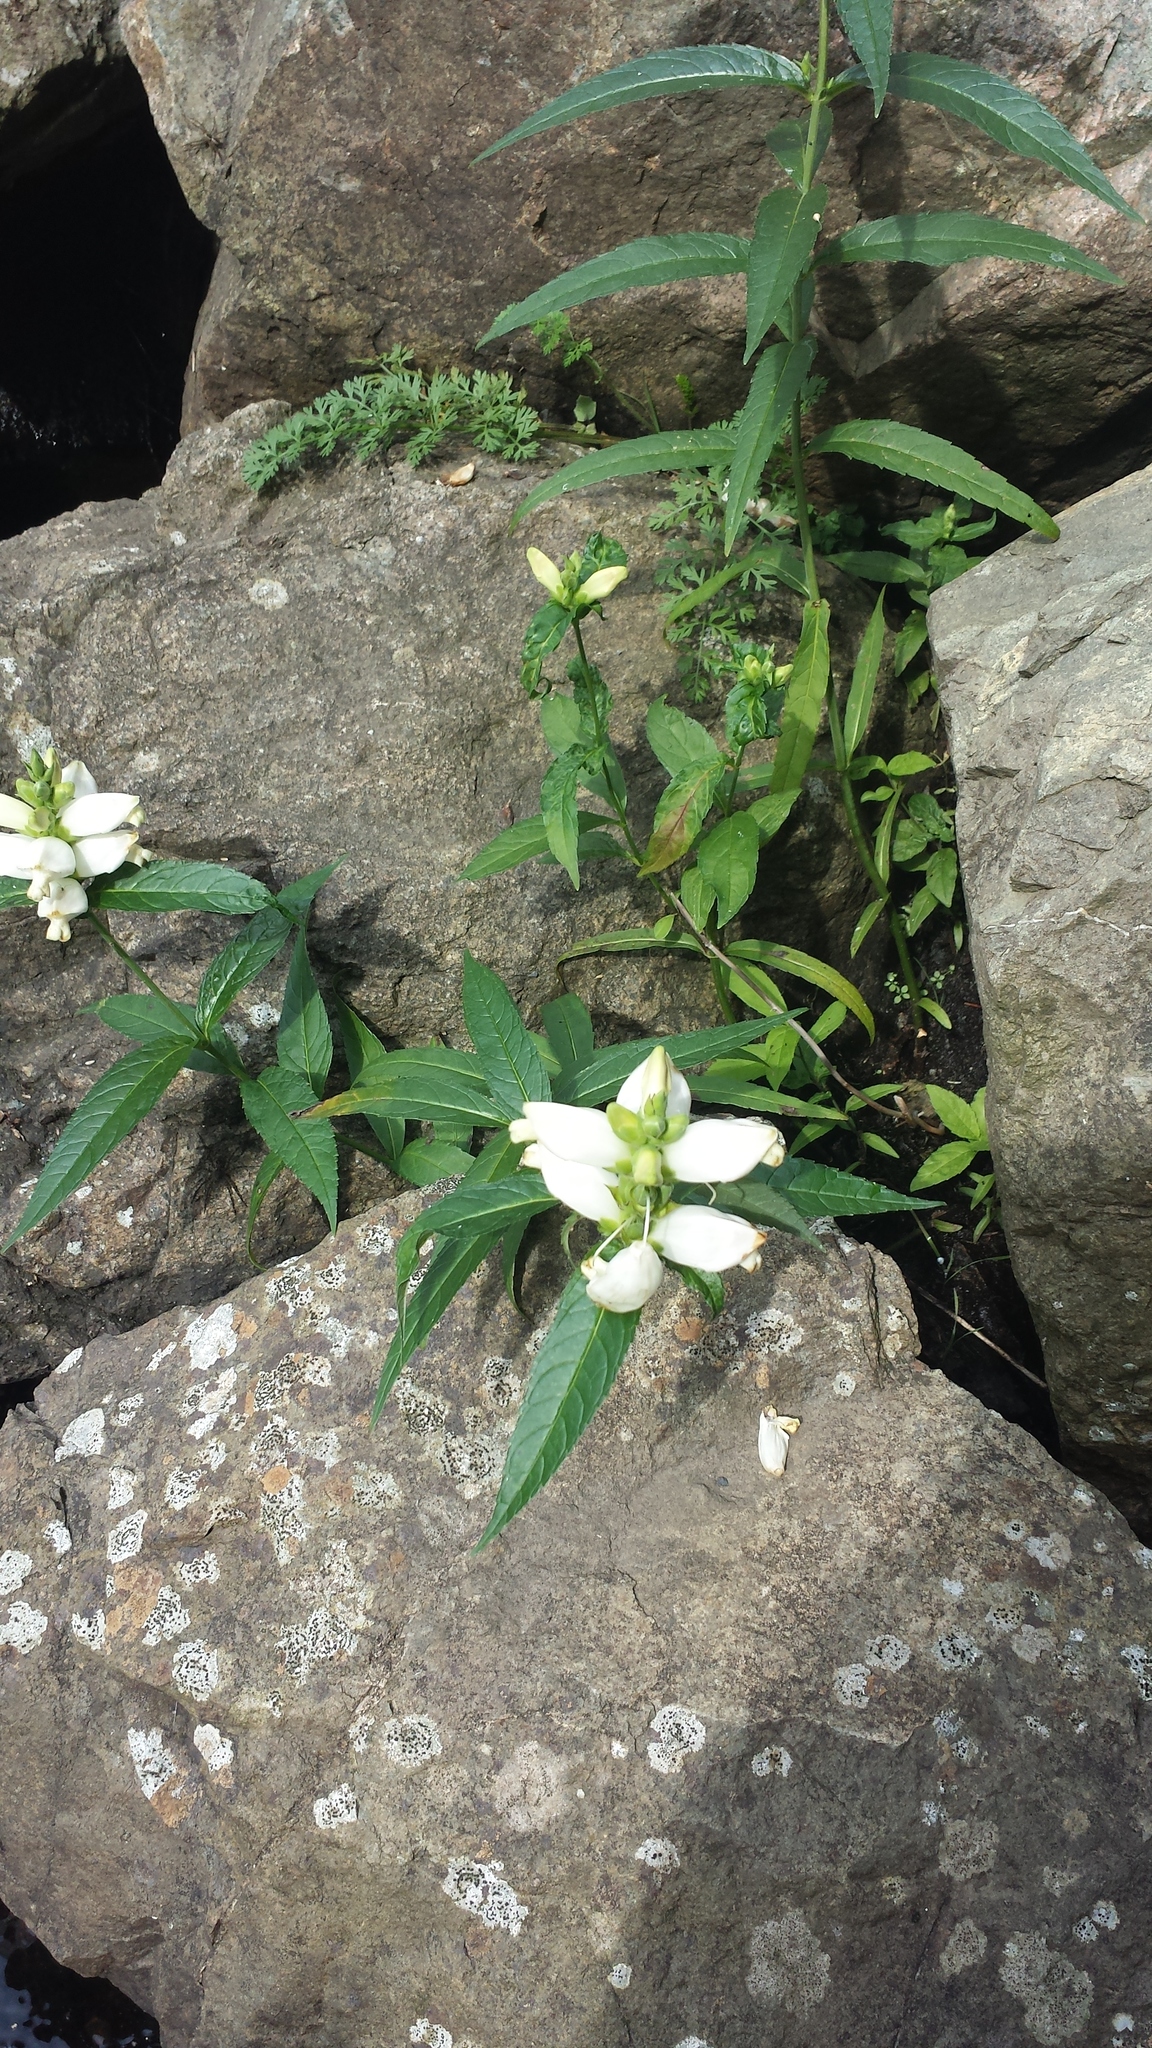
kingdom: Plantae
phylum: Tracheophyta
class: Magnoliopsida
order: Lamiales
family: Plantaginaceae
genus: Chelone
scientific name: Chelone glabra
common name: Snakehead
